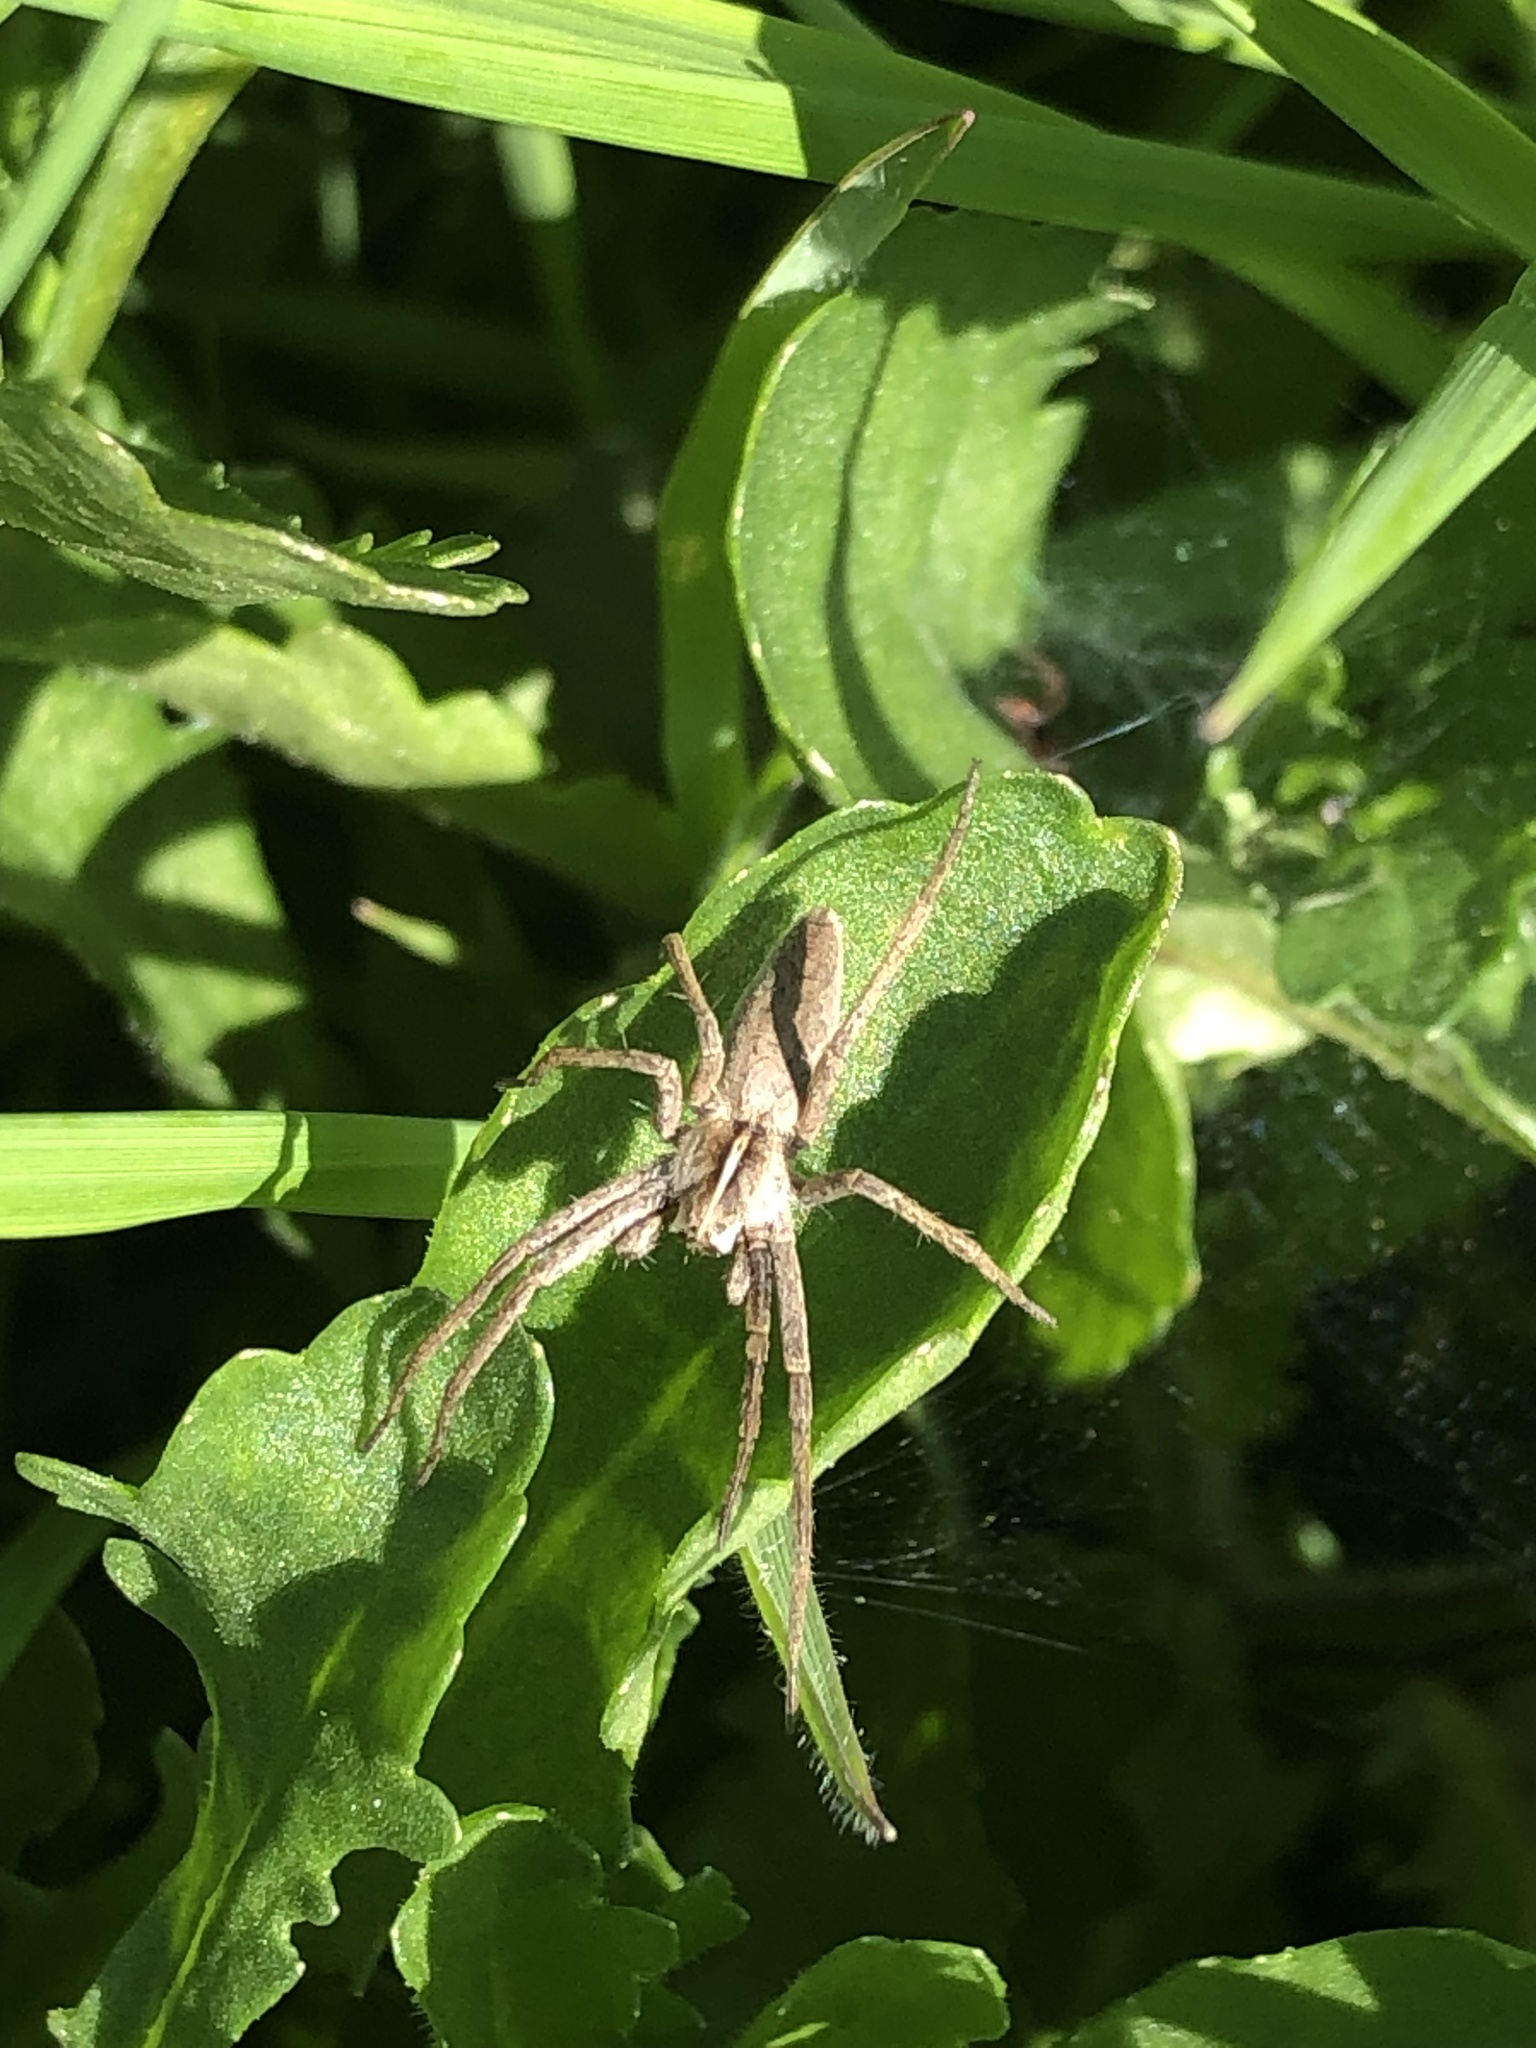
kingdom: Animalia
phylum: Arthropoda
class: Arachnida
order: Araneae
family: Pisauridae
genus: Pisaura
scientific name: Pisaura mirabilis
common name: Tent spider
